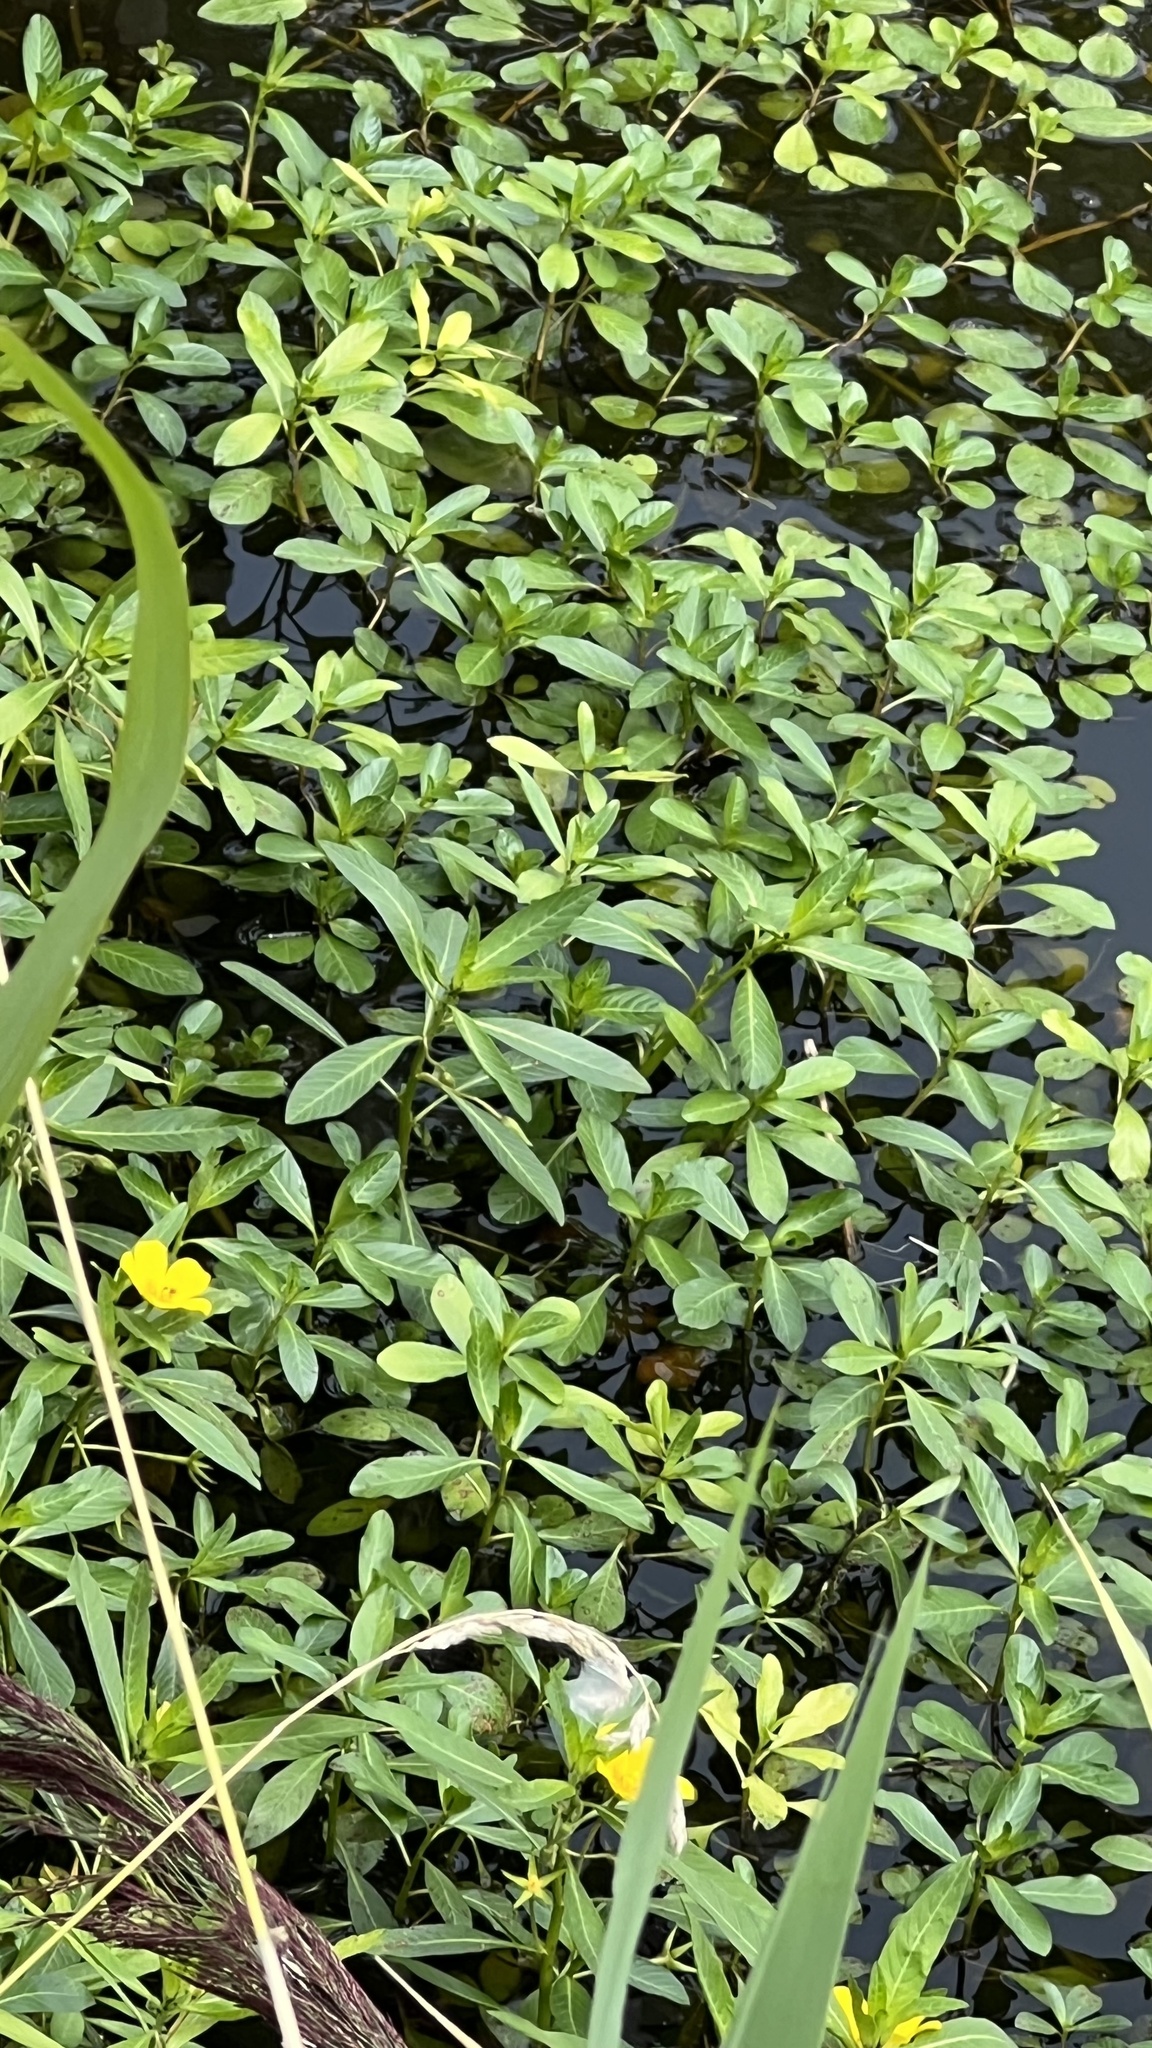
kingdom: Plantae
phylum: Tracheophyta
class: Magnoliopsida
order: Myrtales
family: Onagraceae
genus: Ludwigia
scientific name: Ludwigia grandiflora
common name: Water primrose
